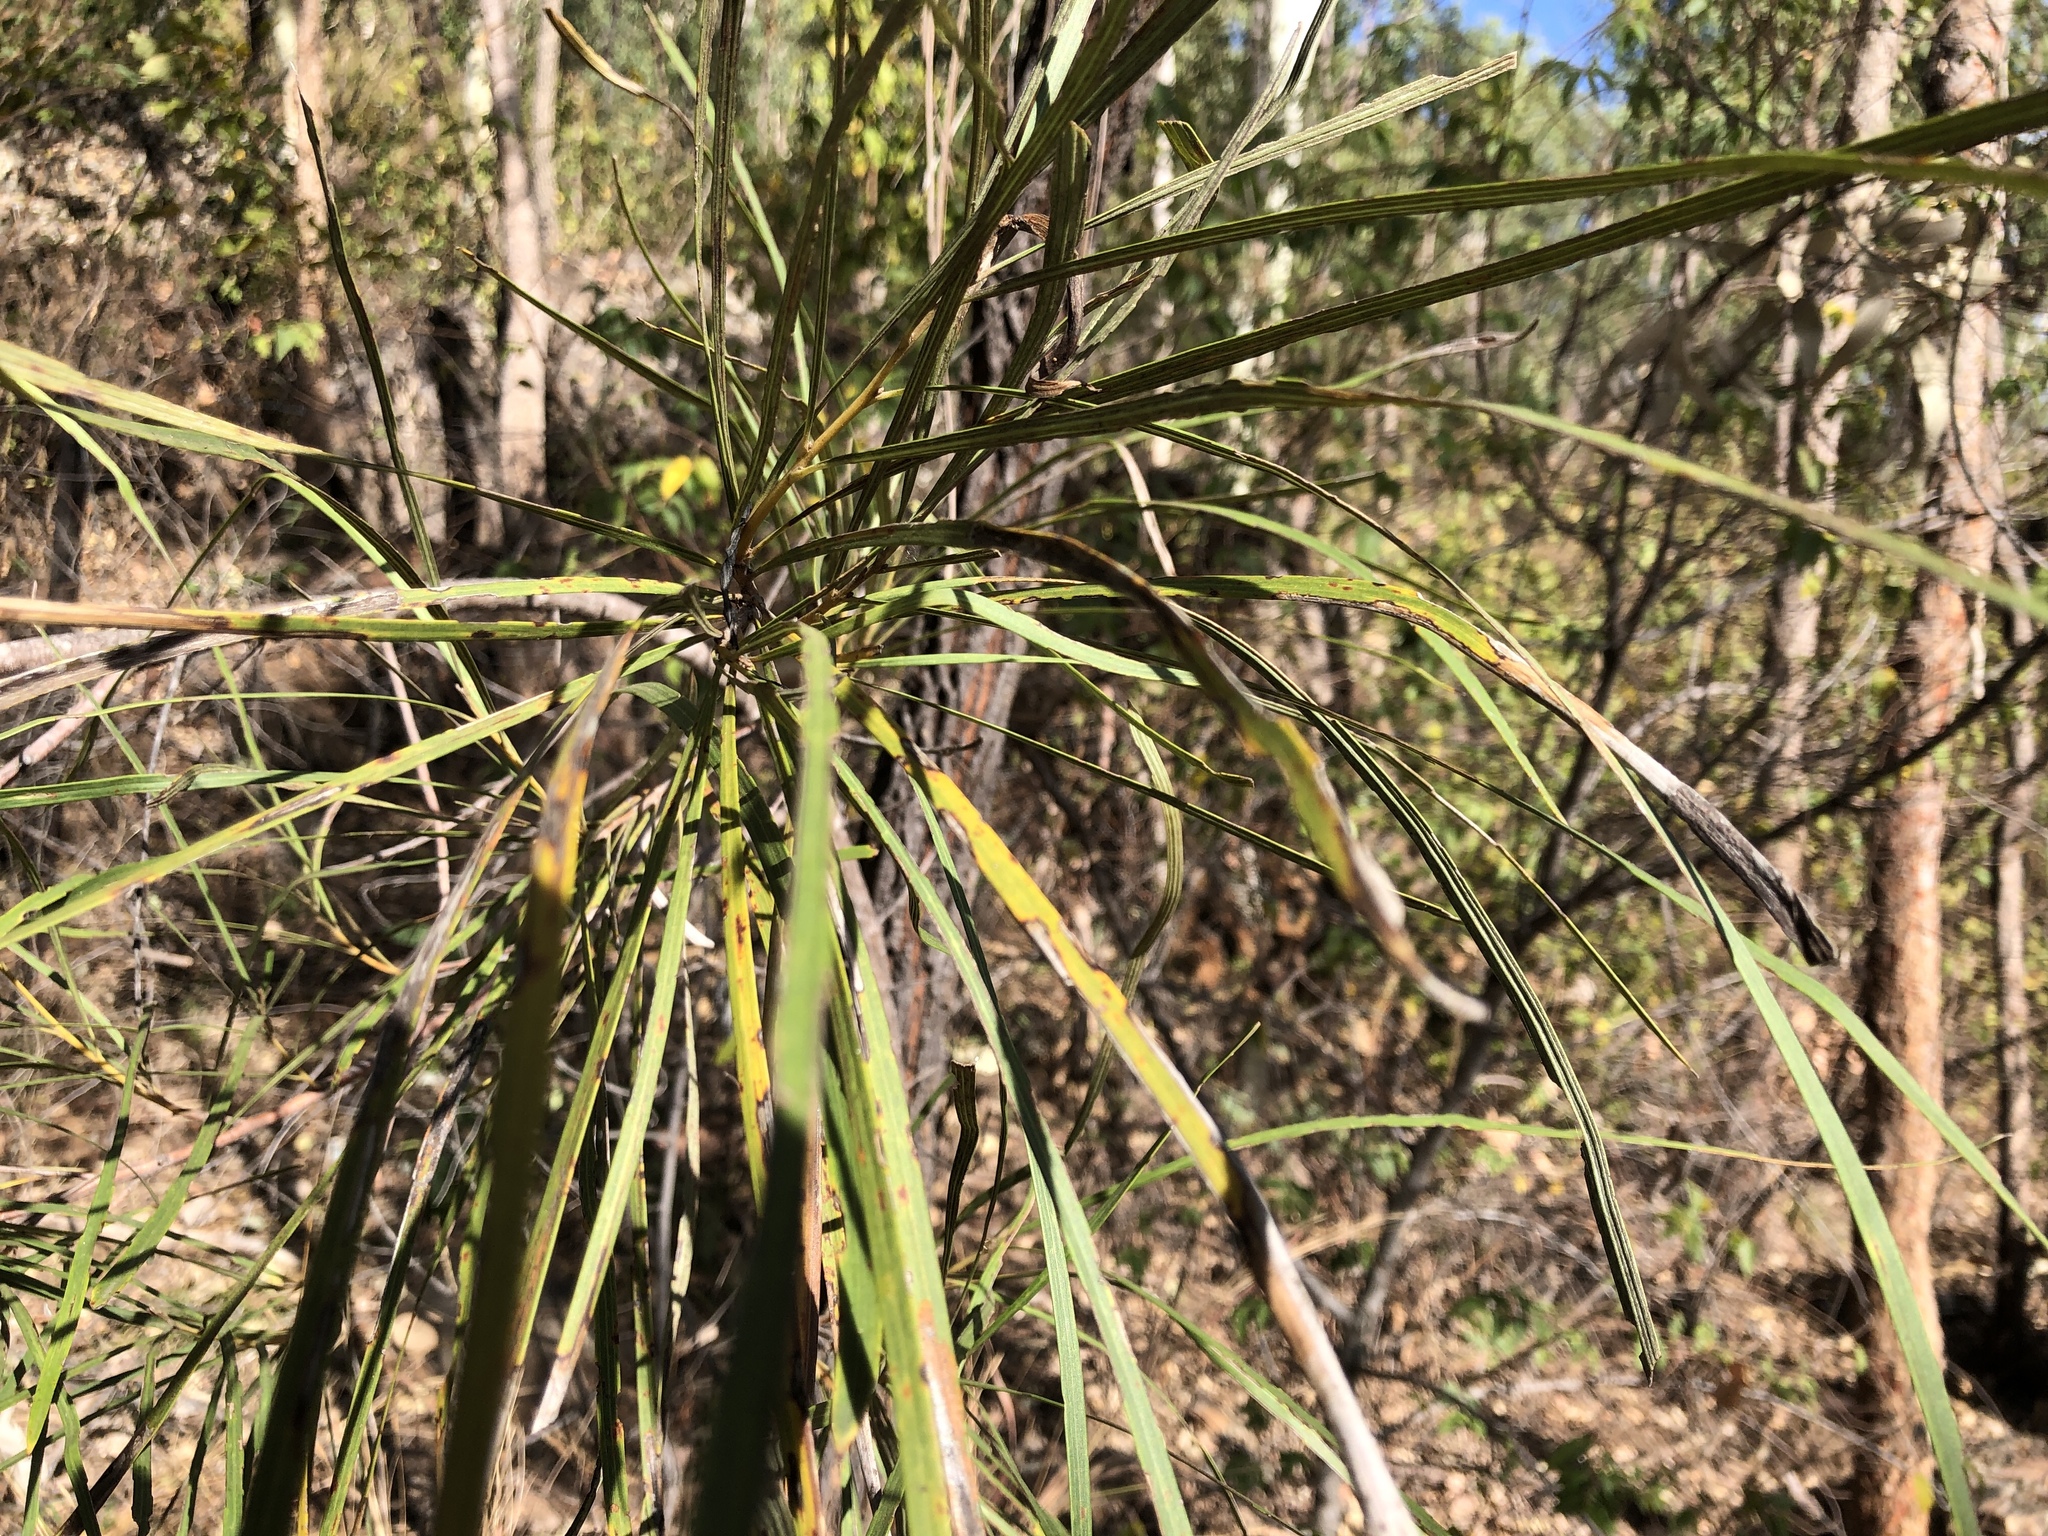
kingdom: Plantae
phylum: Tracheophyta
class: Magnoliopsida
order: Proteales
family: Proteaceae
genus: Grevillea
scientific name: Grevillea parallela
